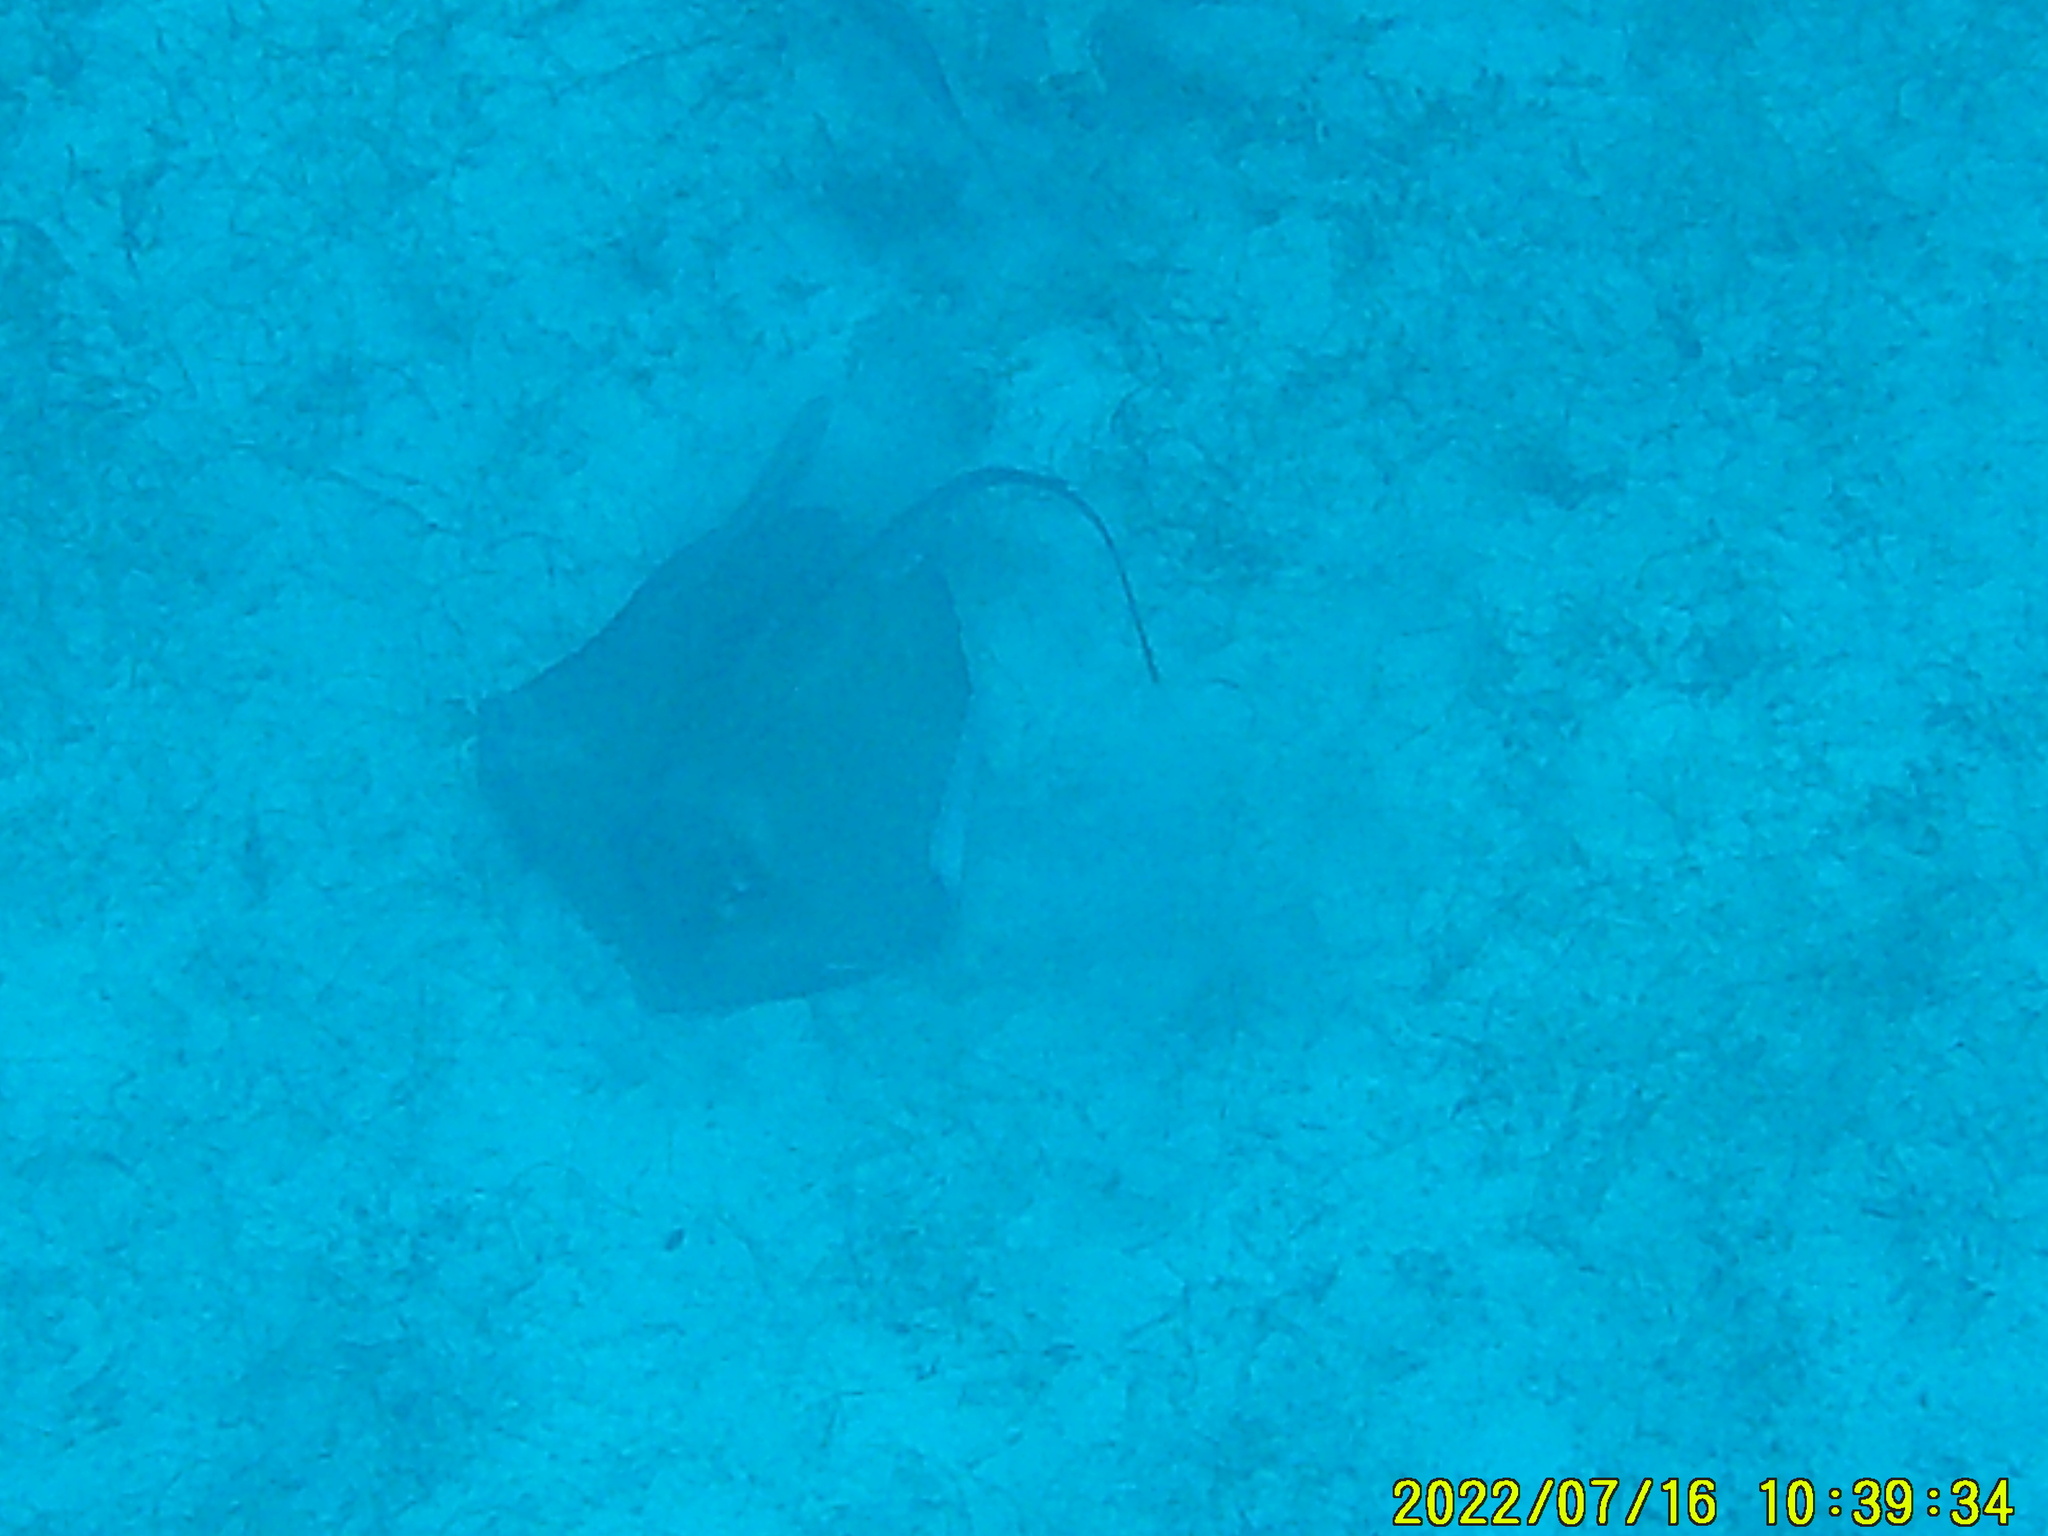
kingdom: Animalia
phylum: Chordata
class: Elasmobranchii
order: Myliobatiformes
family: Dasyatidae
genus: Hypanus
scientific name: Hypanus americanus
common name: Southern stingray
